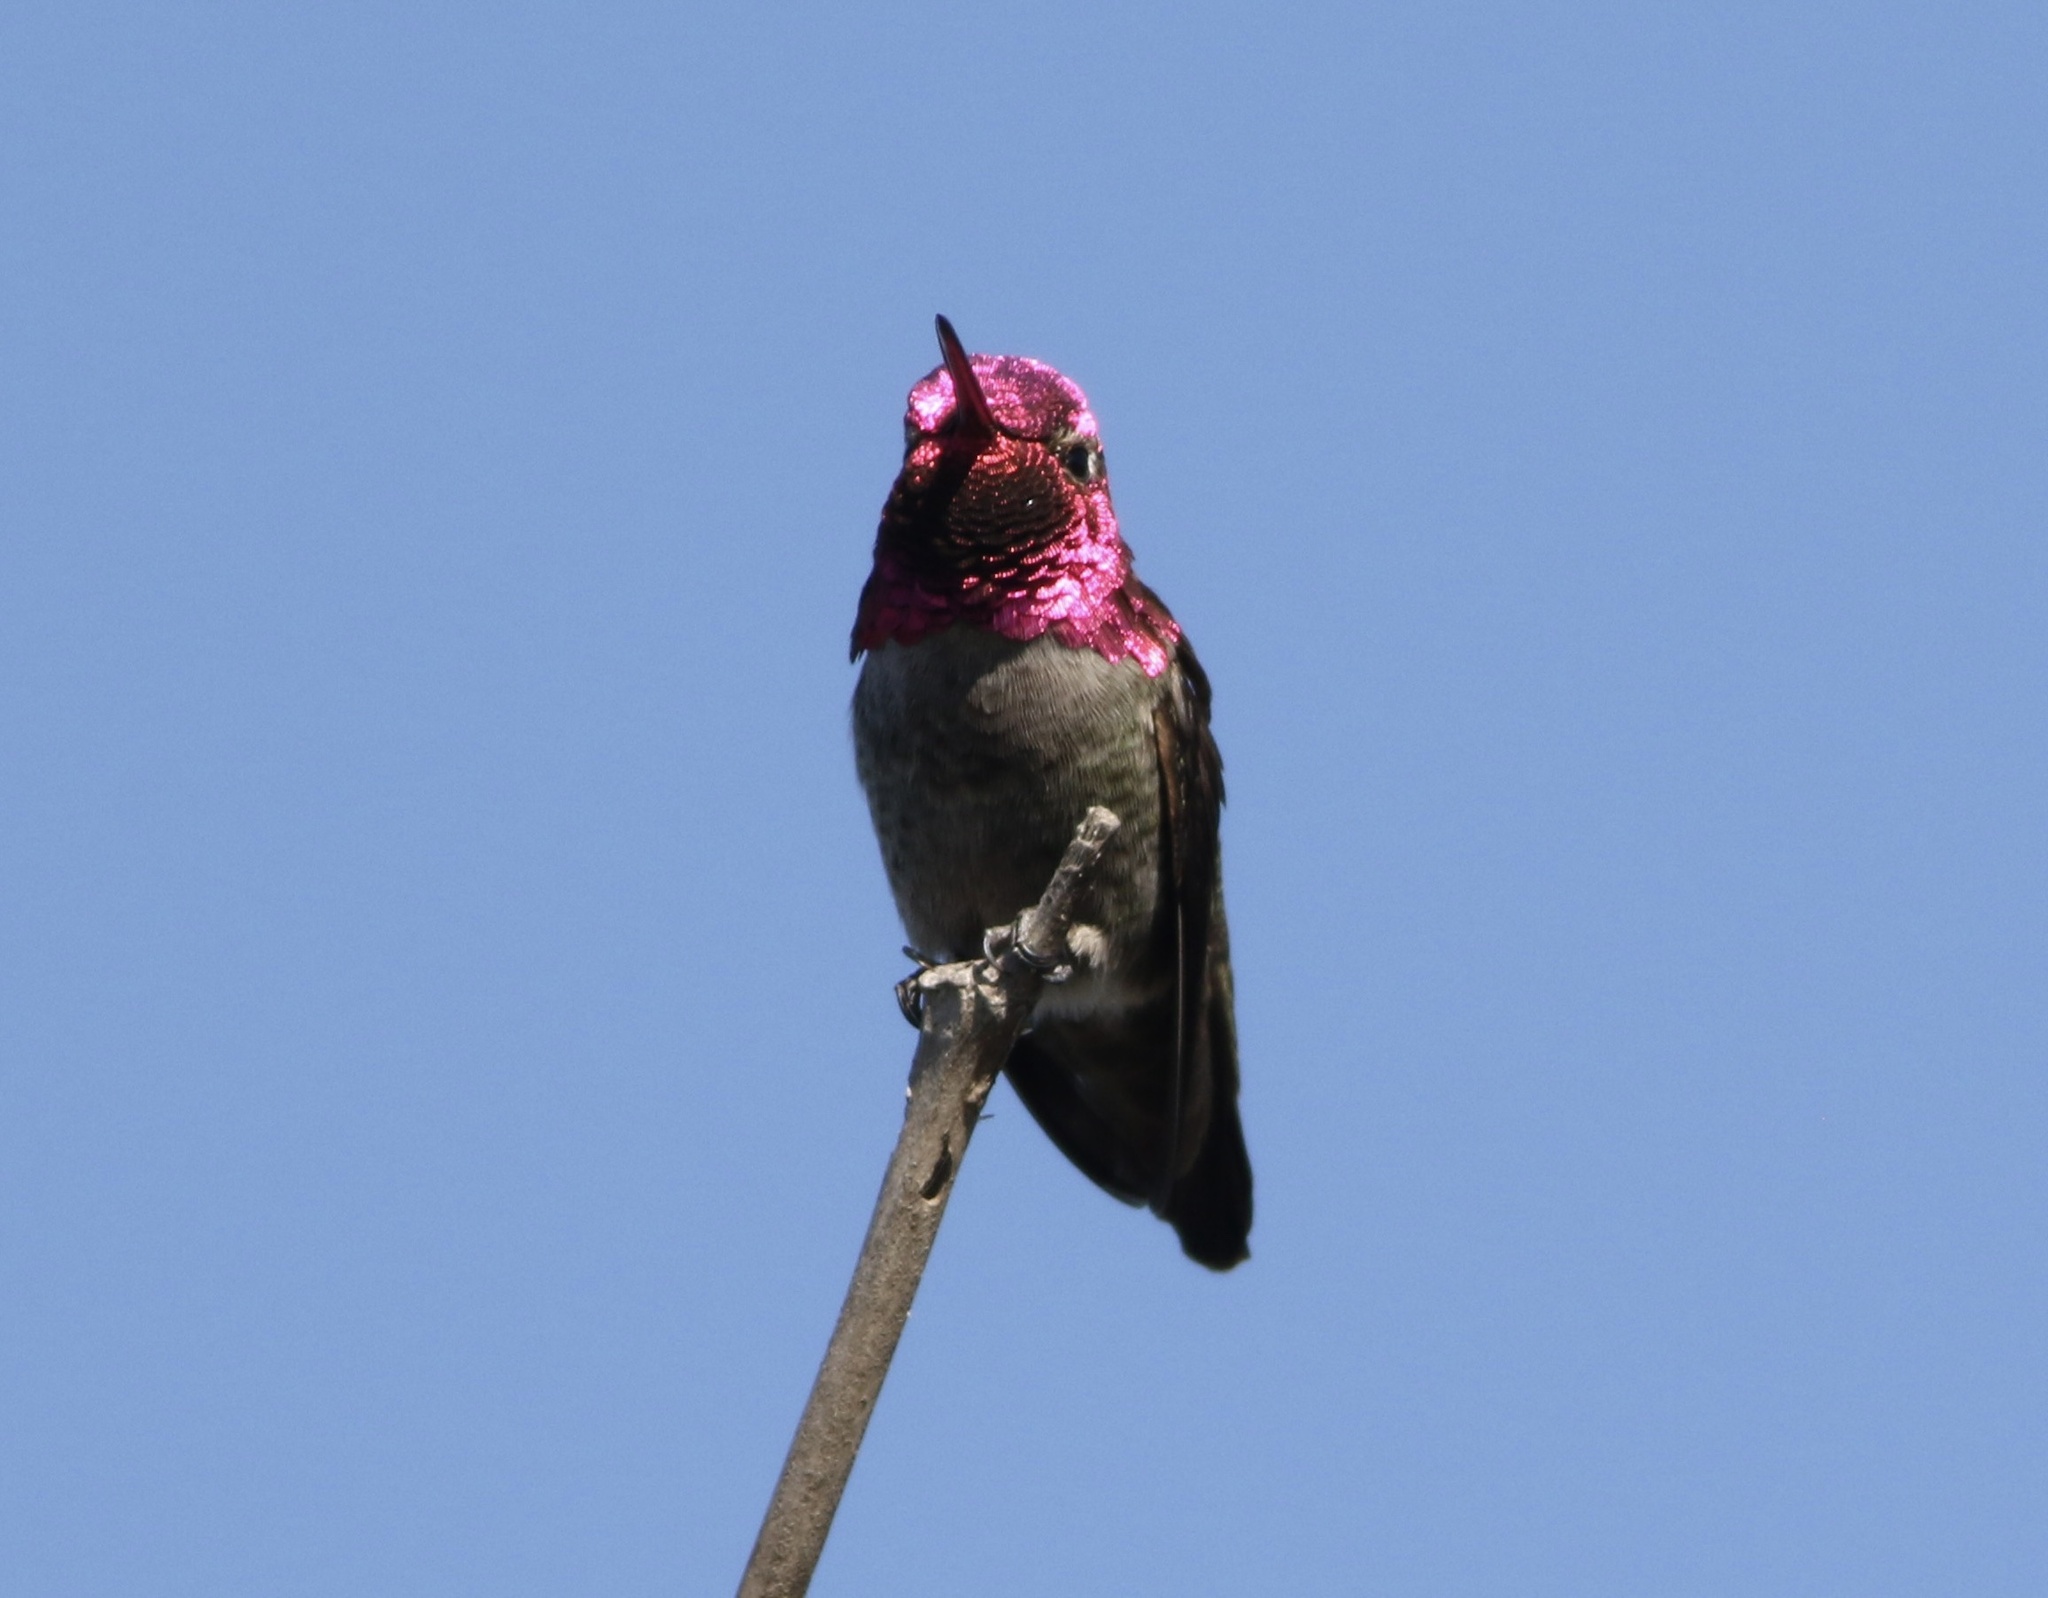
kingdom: Animalia
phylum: Chordata
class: Aves
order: Apodiformes
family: Trochilidae
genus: Calypte
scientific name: Calypte anna
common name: Anna's hummingbird
